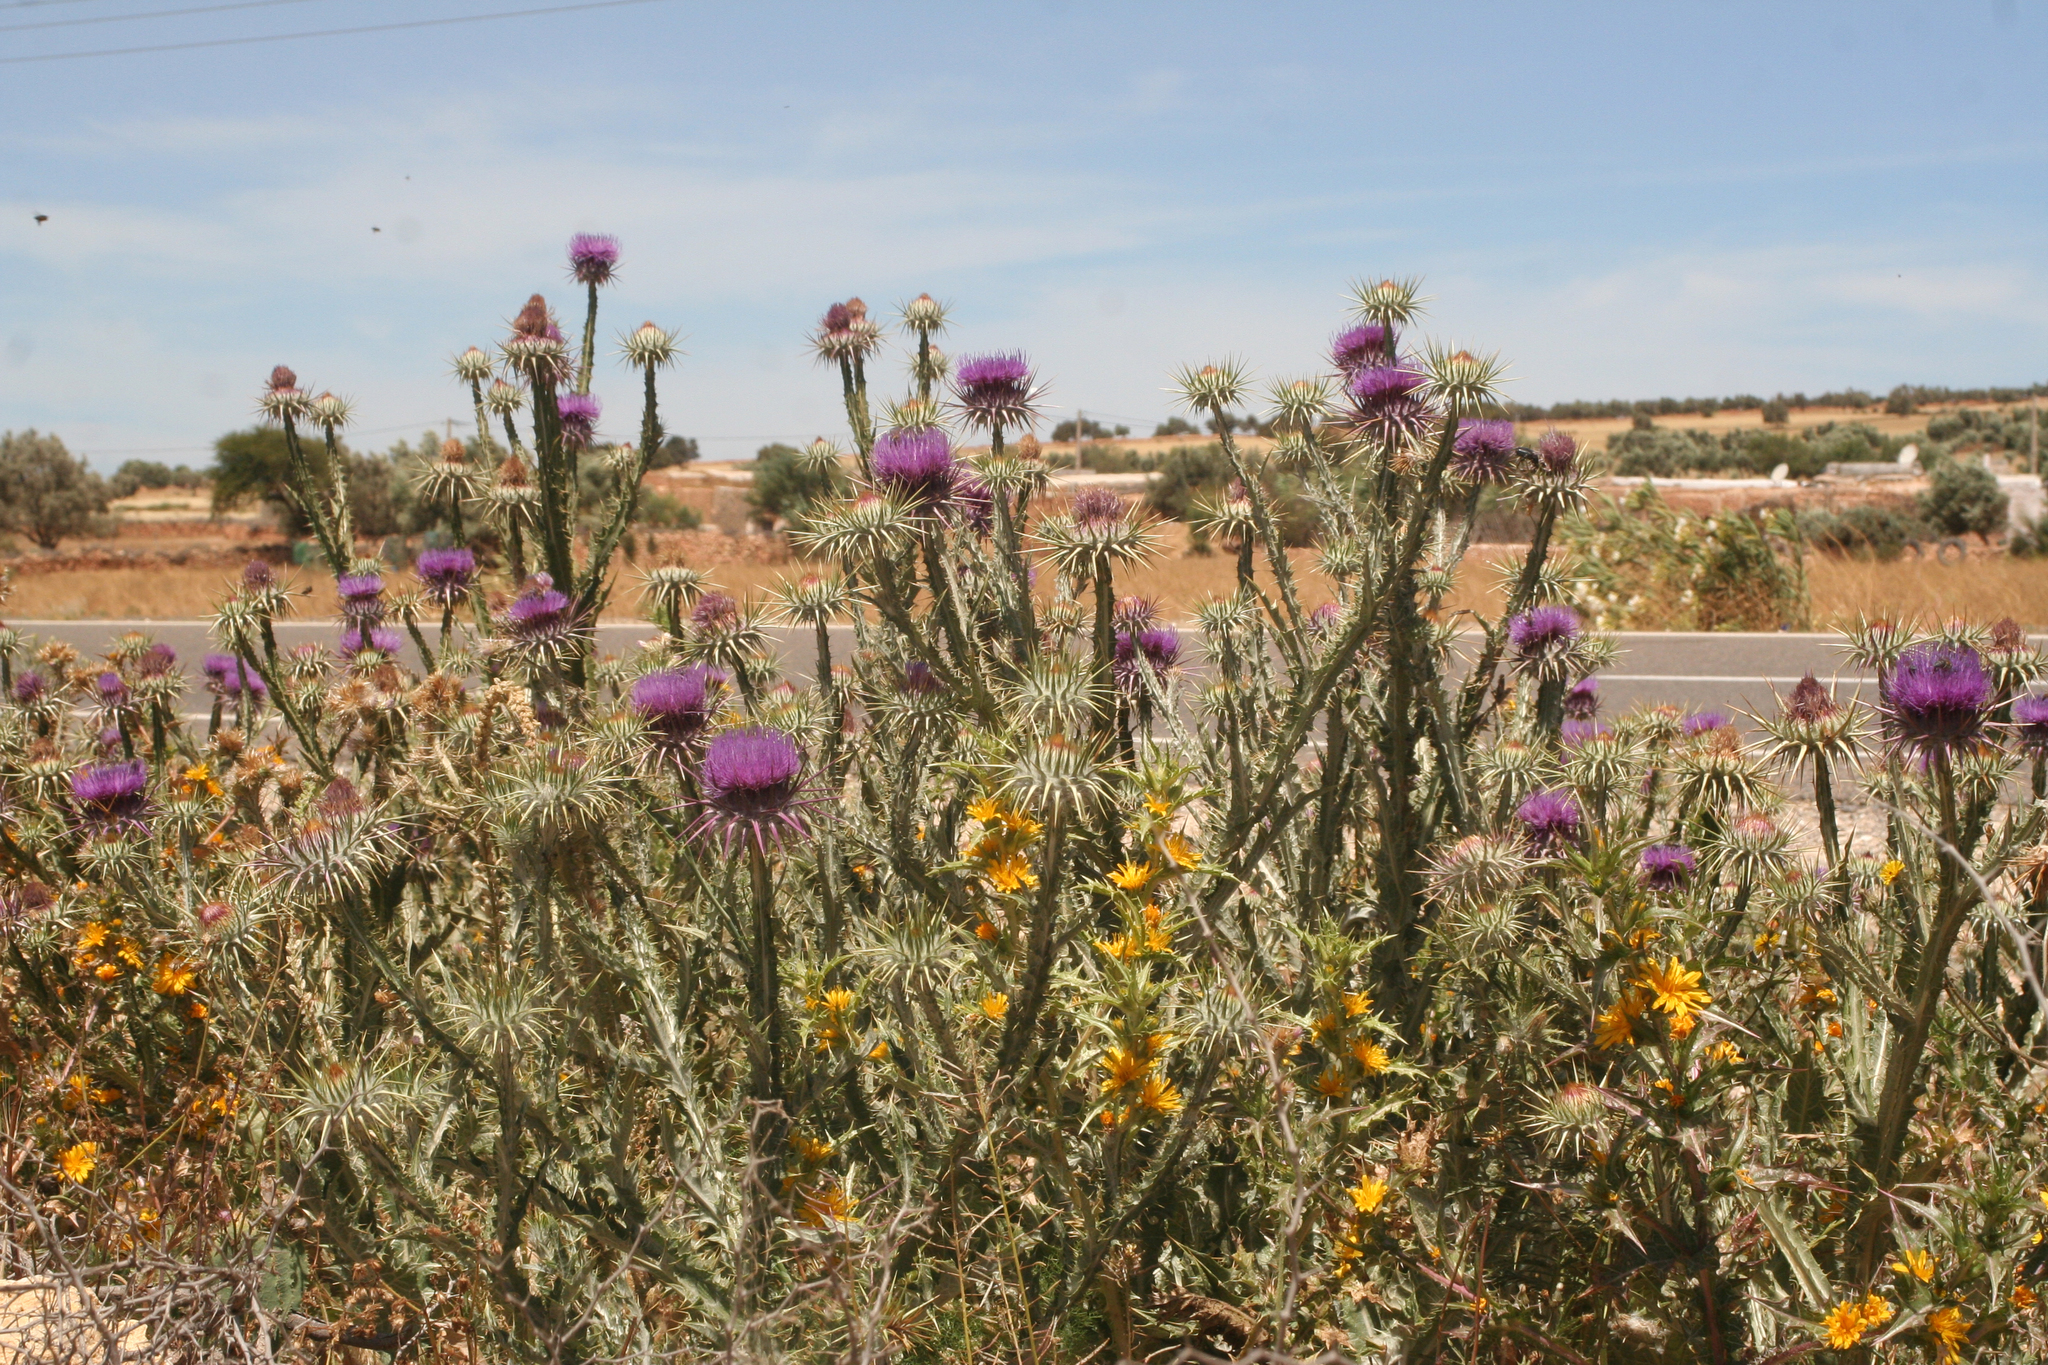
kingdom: Plantae
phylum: Tracheophyta
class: Magnoliopsida
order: Asterales
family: Asteraceae
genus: Onopordum
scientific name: Onopordum macracanthum
